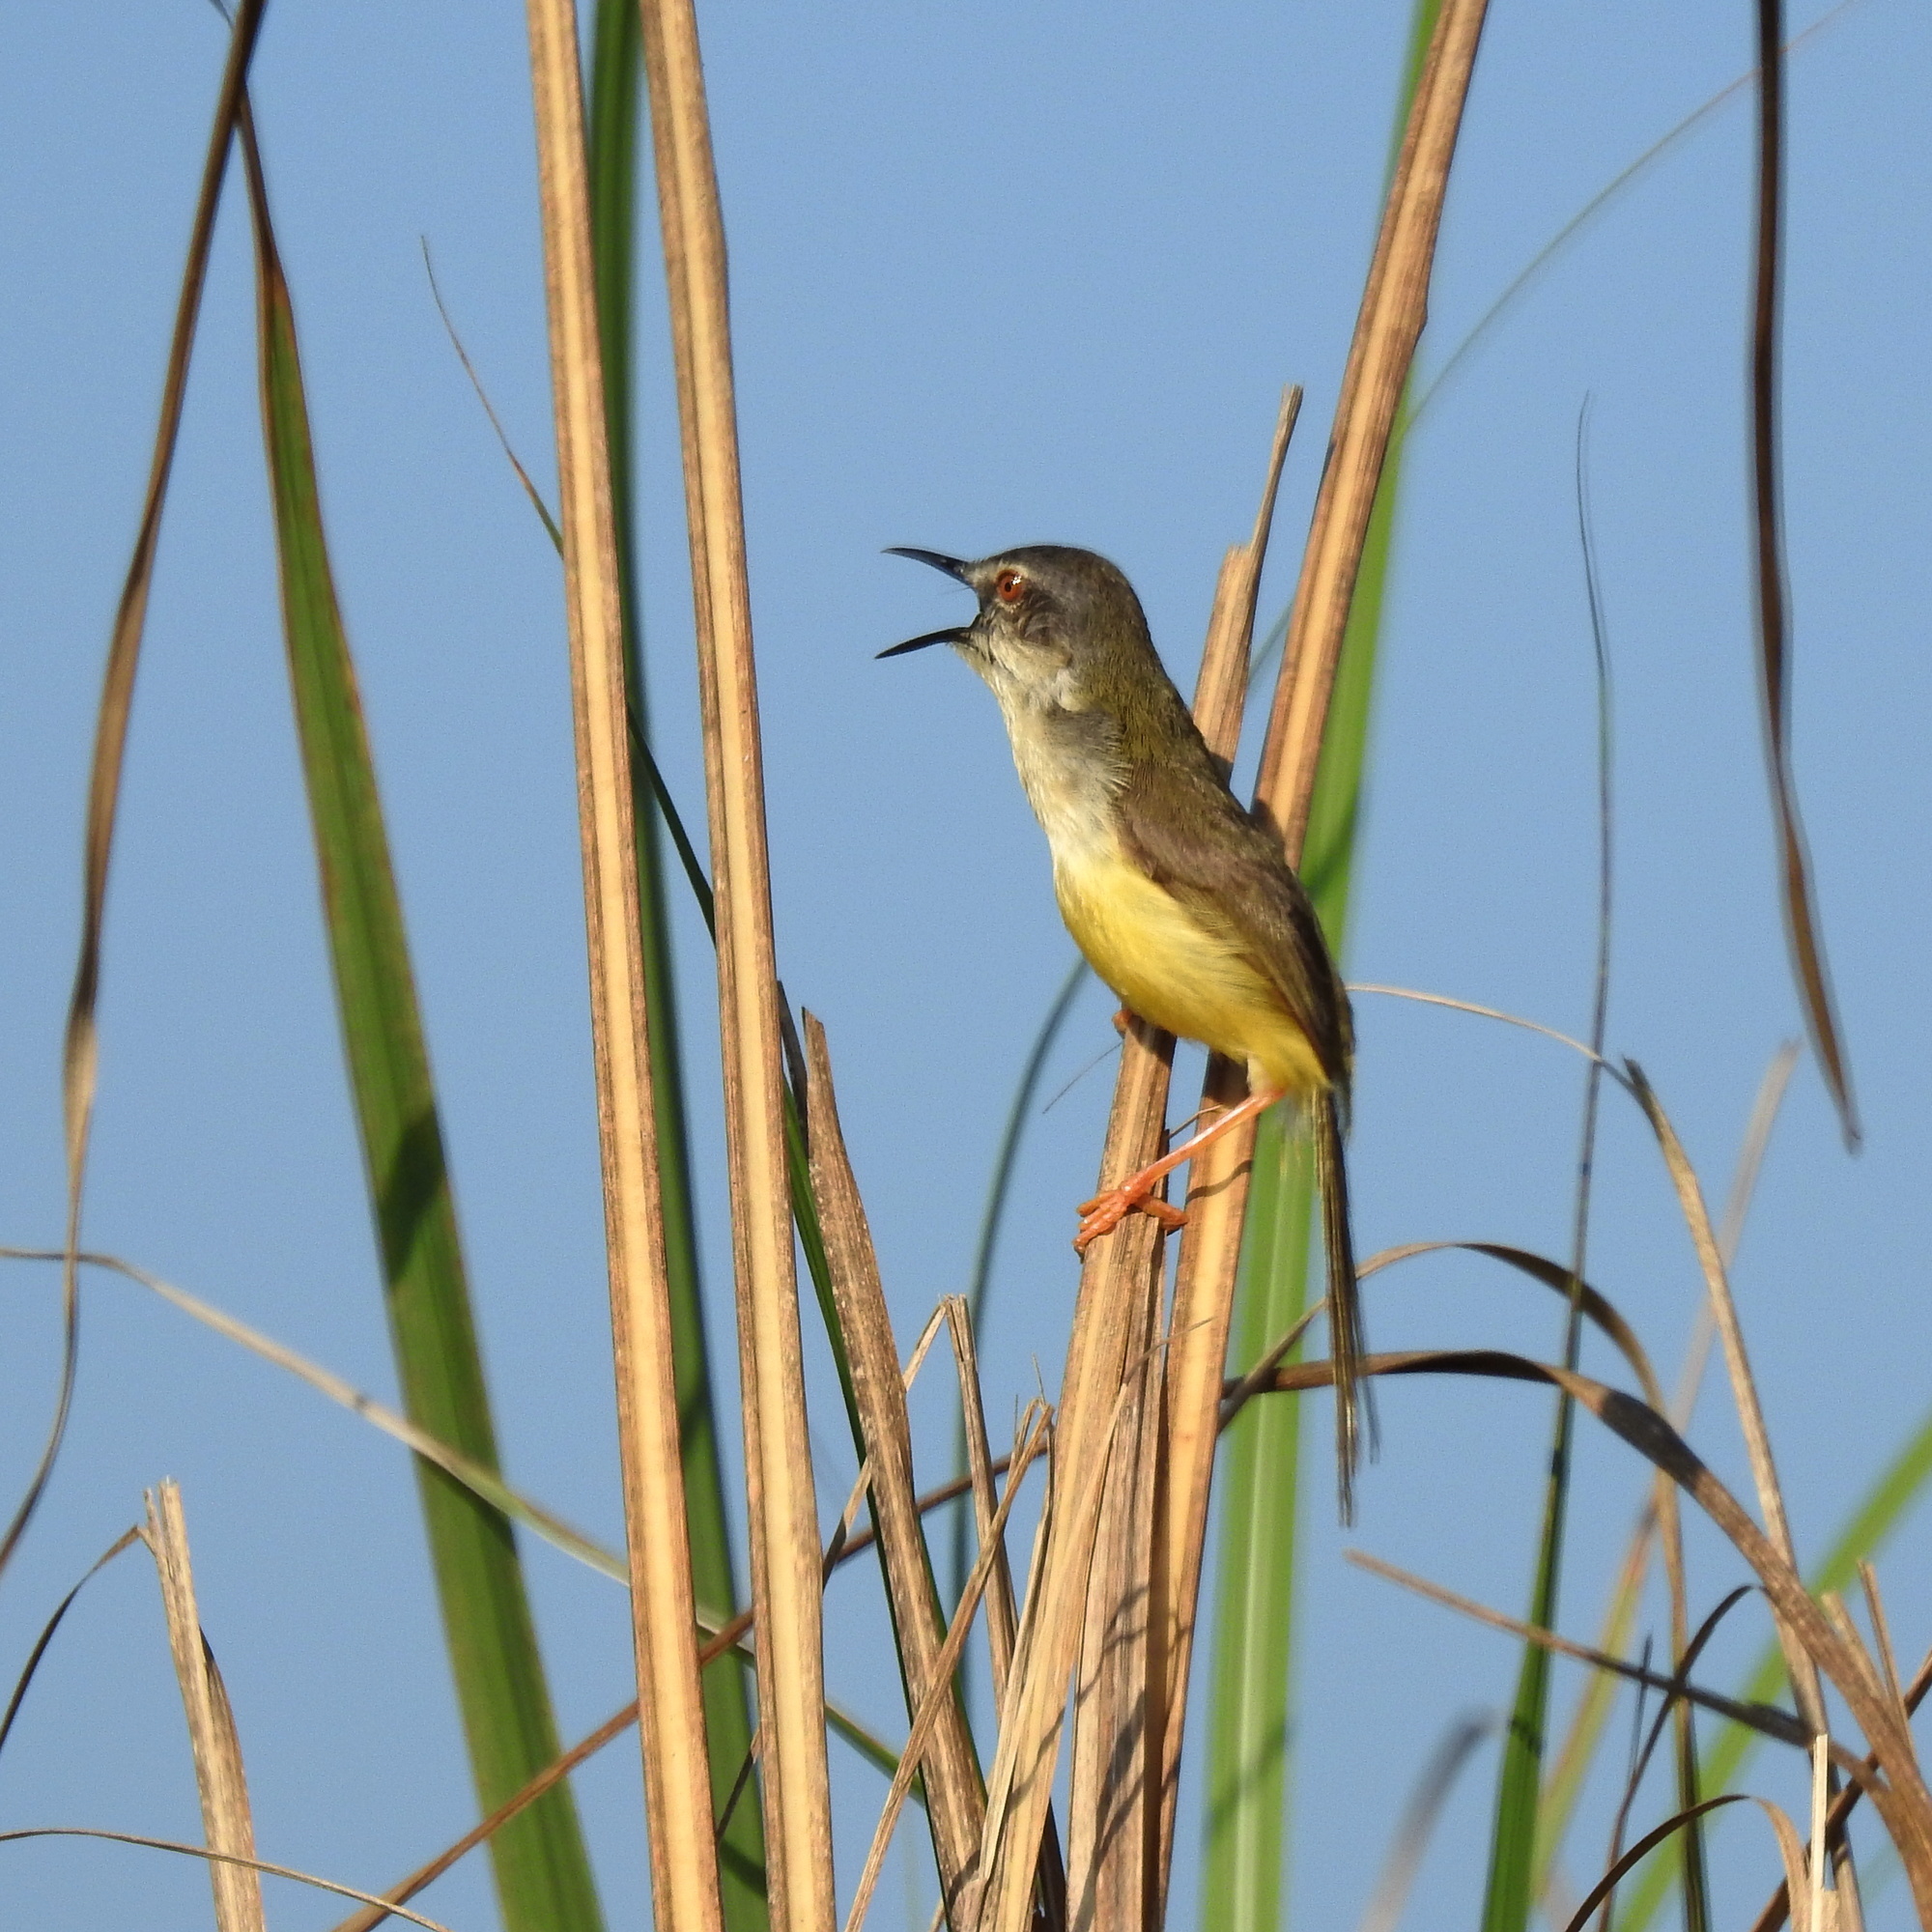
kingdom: Animalia
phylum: Chordata
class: Aves
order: Passeriformes
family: Cisticolidae
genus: Prinia
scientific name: Prinia flaviventris
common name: Yellow-bellied prinia
